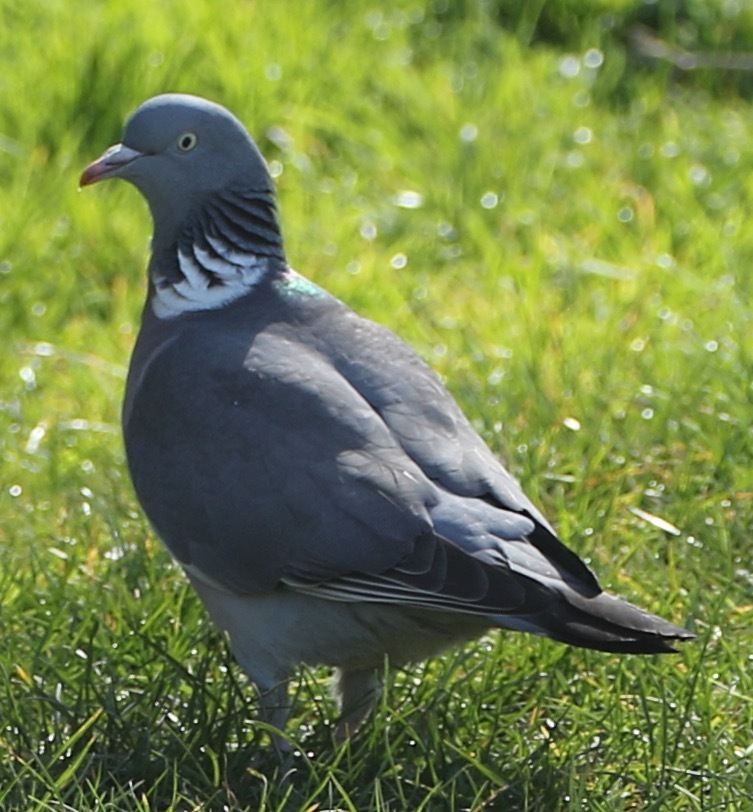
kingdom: Animalia
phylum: Chordata
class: Aves
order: Columbiformes
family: Columbidae
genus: Columba
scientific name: Columba palumbus
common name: Common wood pigeon
